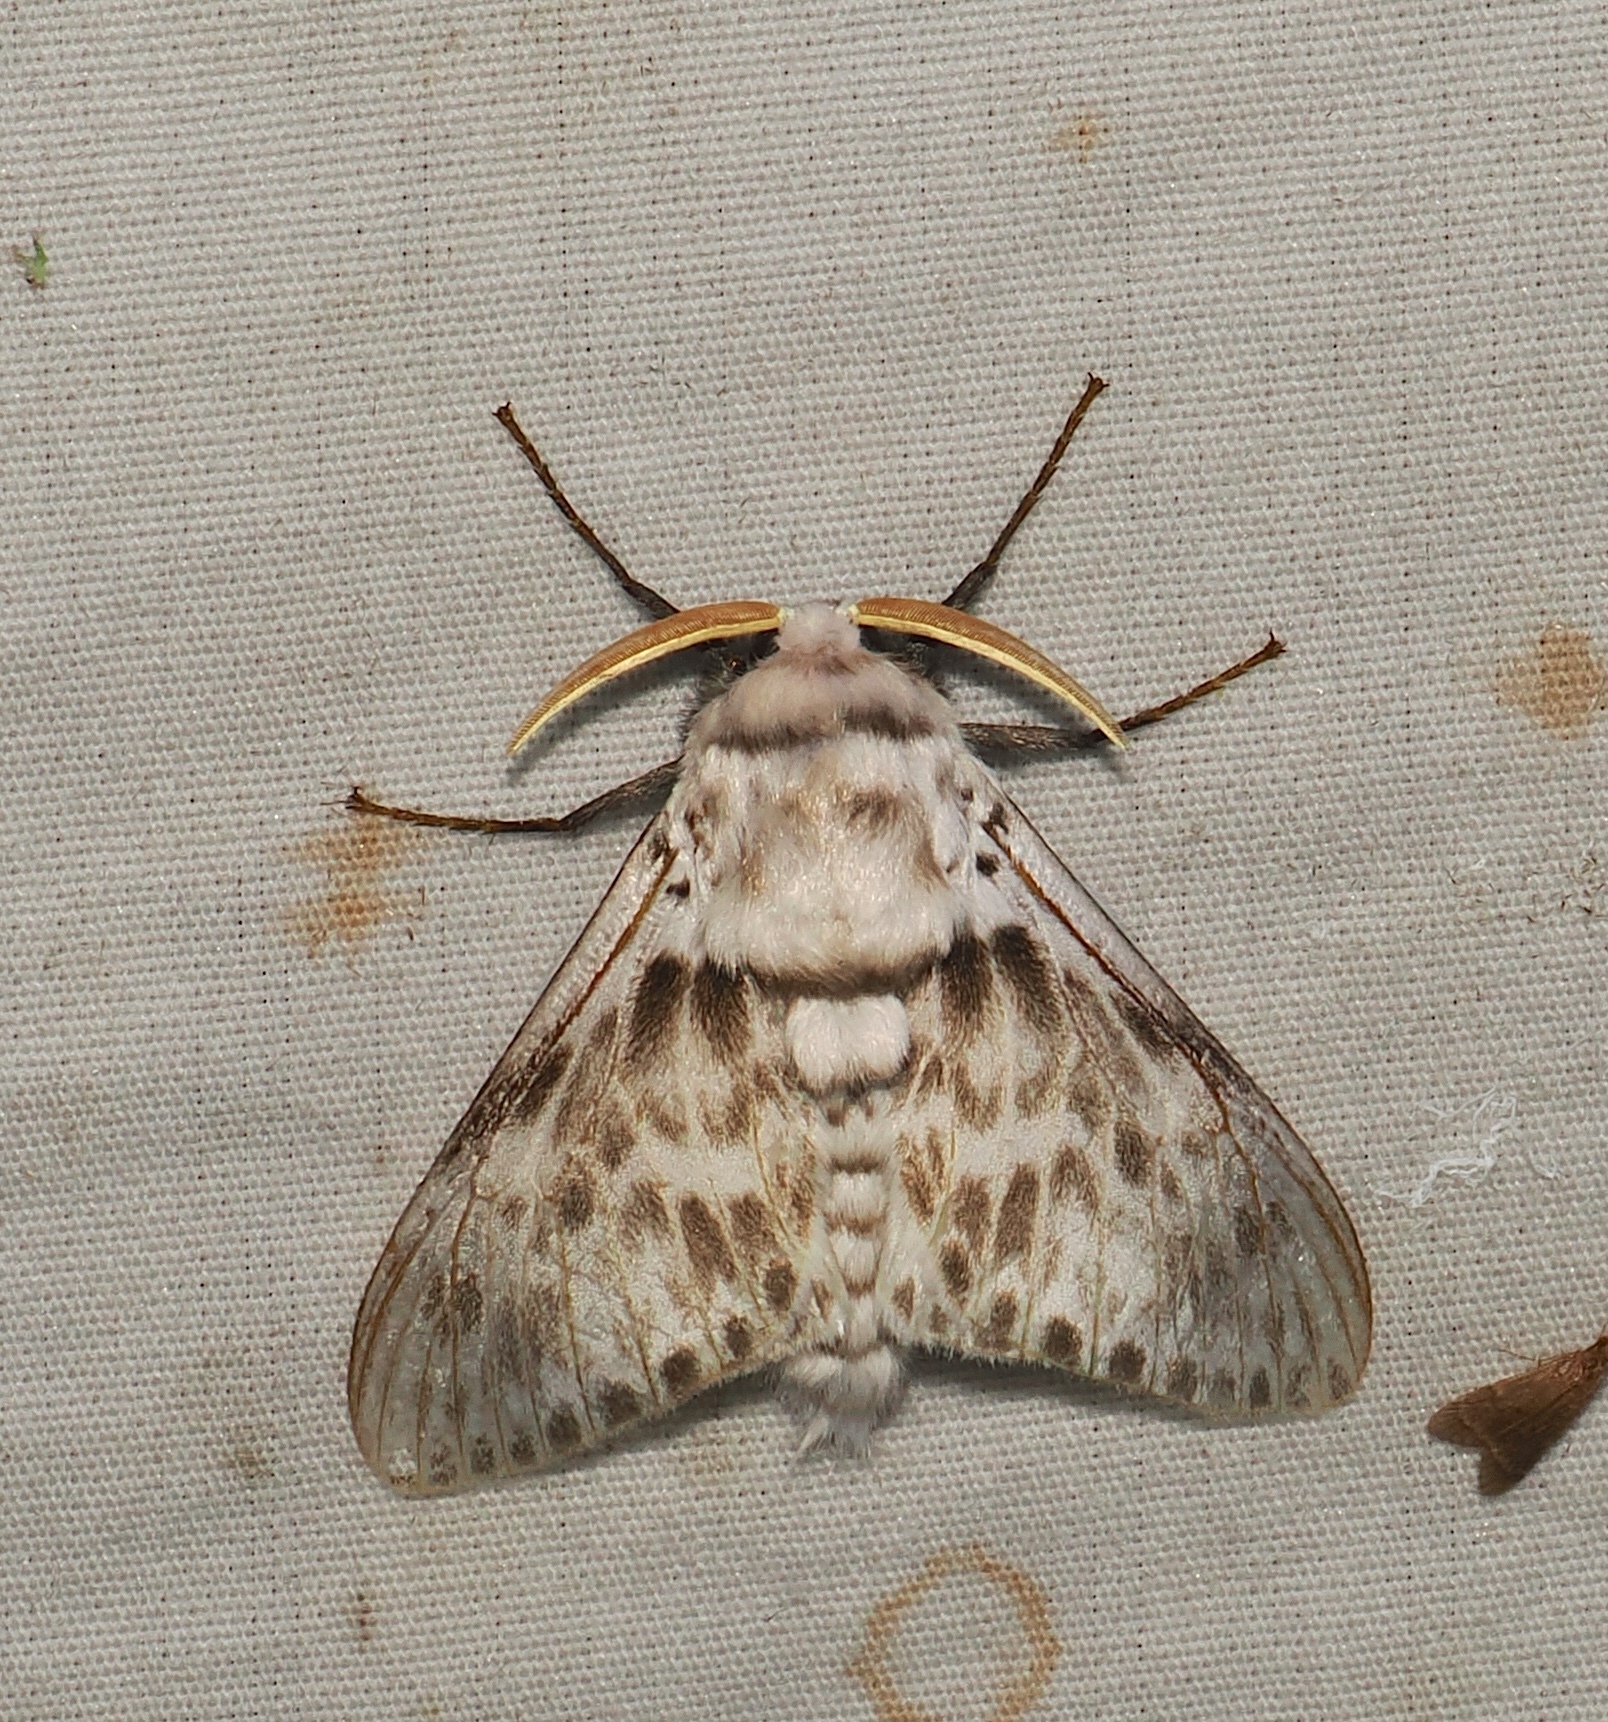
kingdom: Animalia
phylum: Arthropoda
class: Insecta
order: Lepidoptera
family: Megalopygidae
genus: Podalia
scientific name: Podalia albescens
